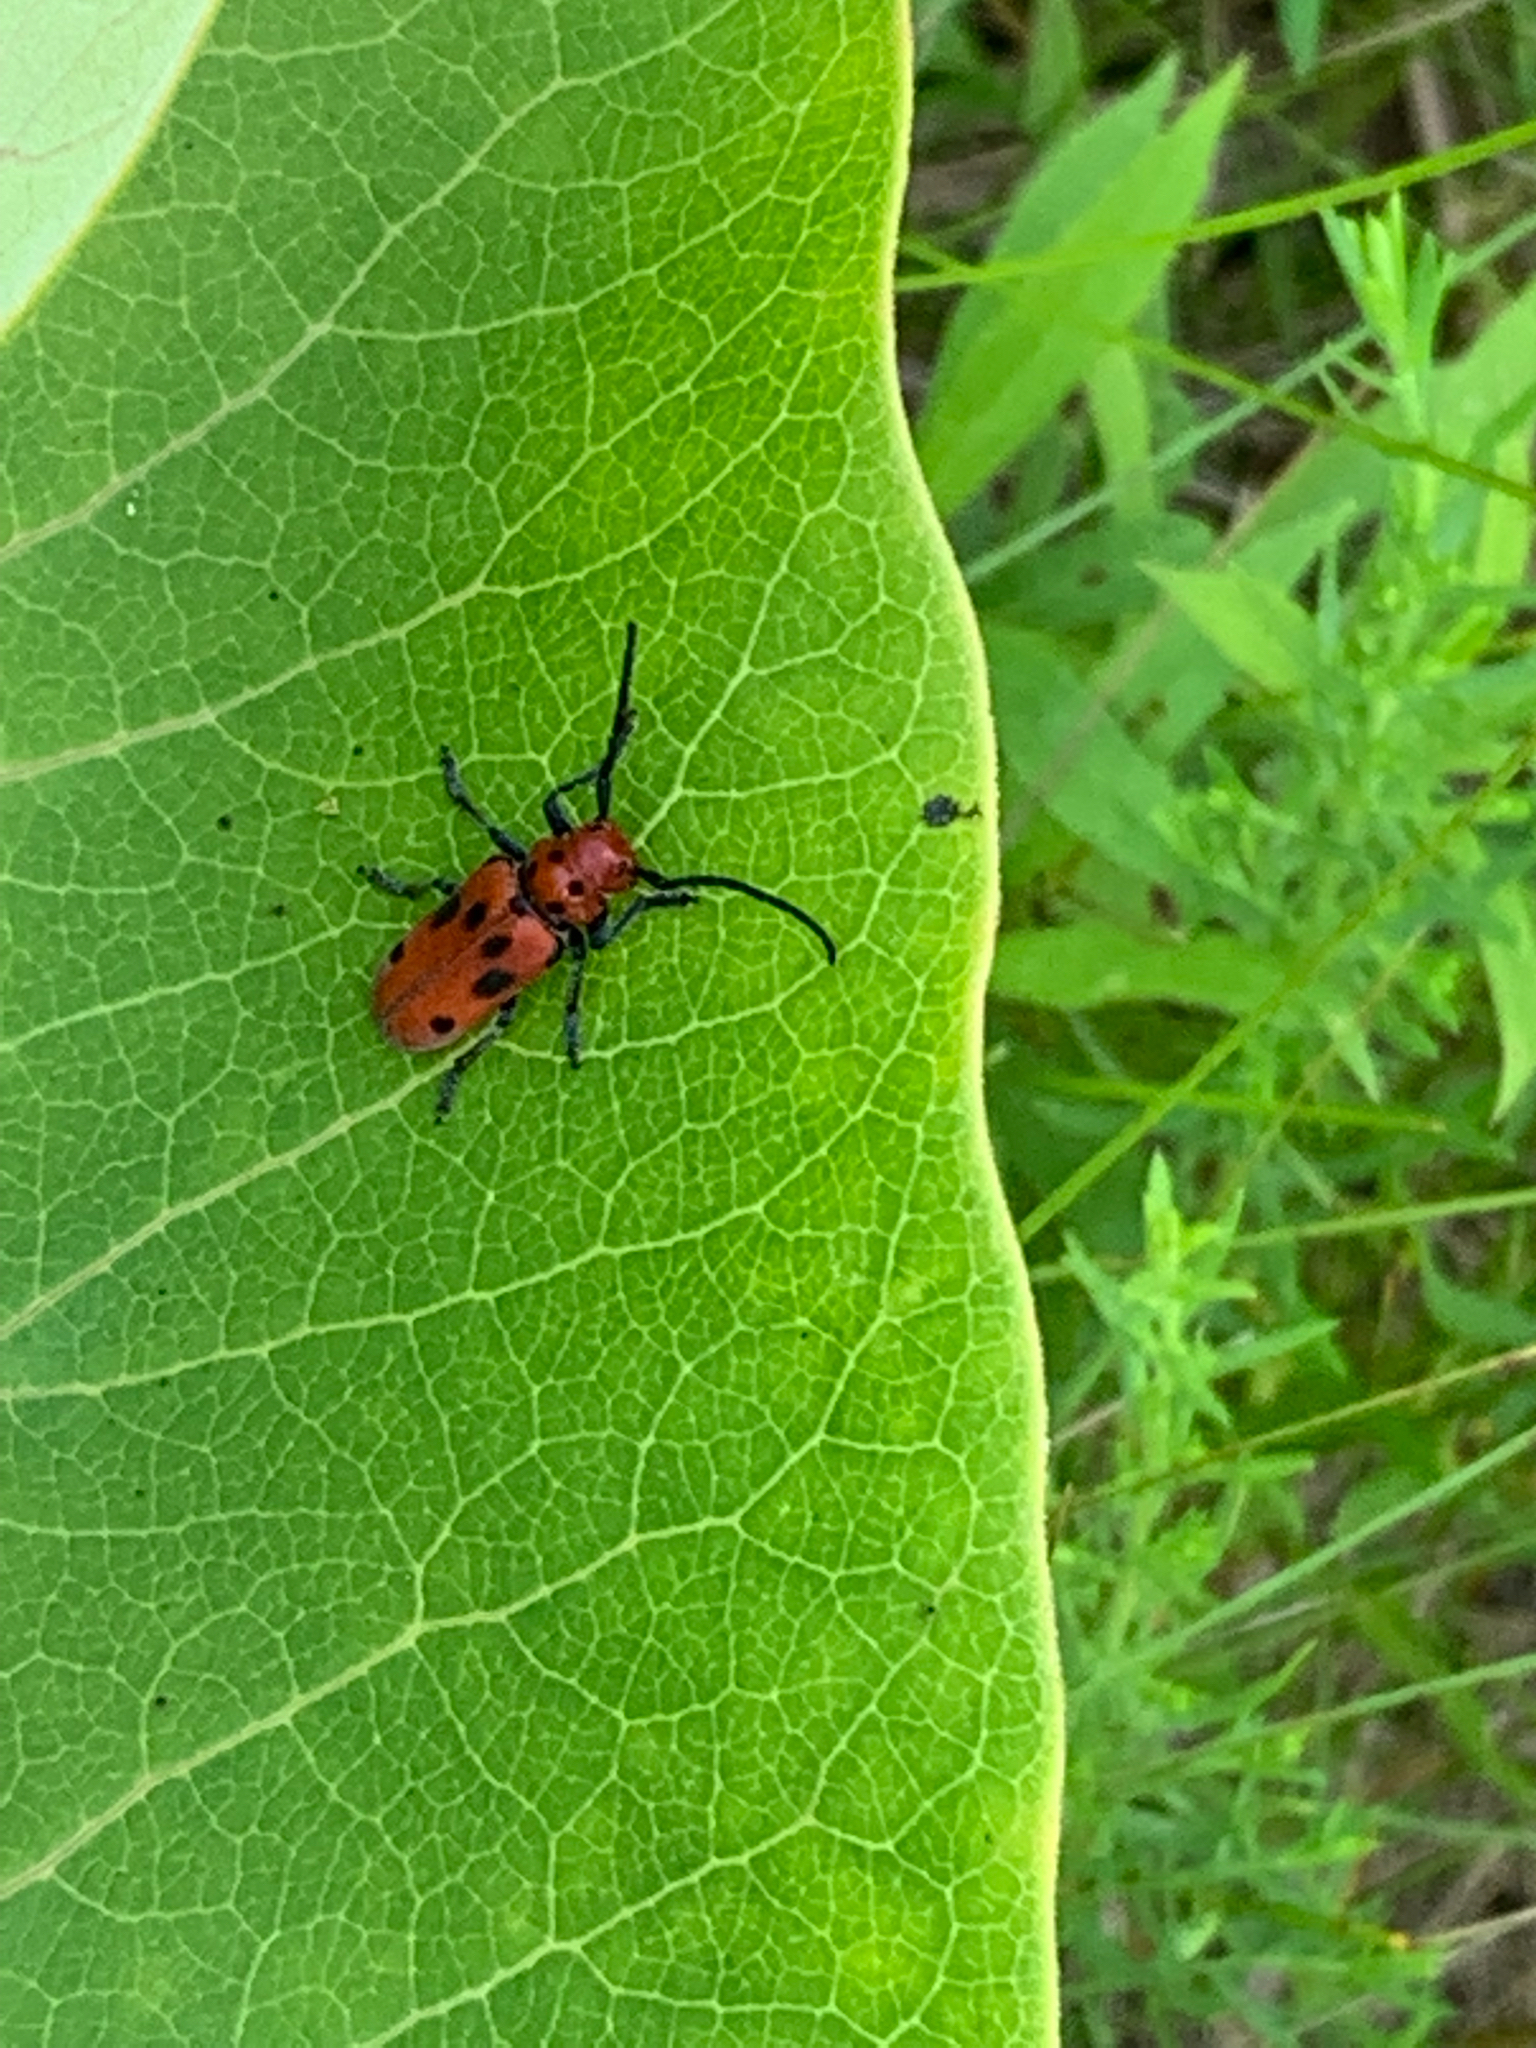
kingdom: Animalia
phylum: Arthropoda
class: Insecta
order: Coleoptera
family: Cerambycidae
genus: Tetraopes
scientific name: Tetraopes tetrophthalmus
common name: Red milkweed beetle
